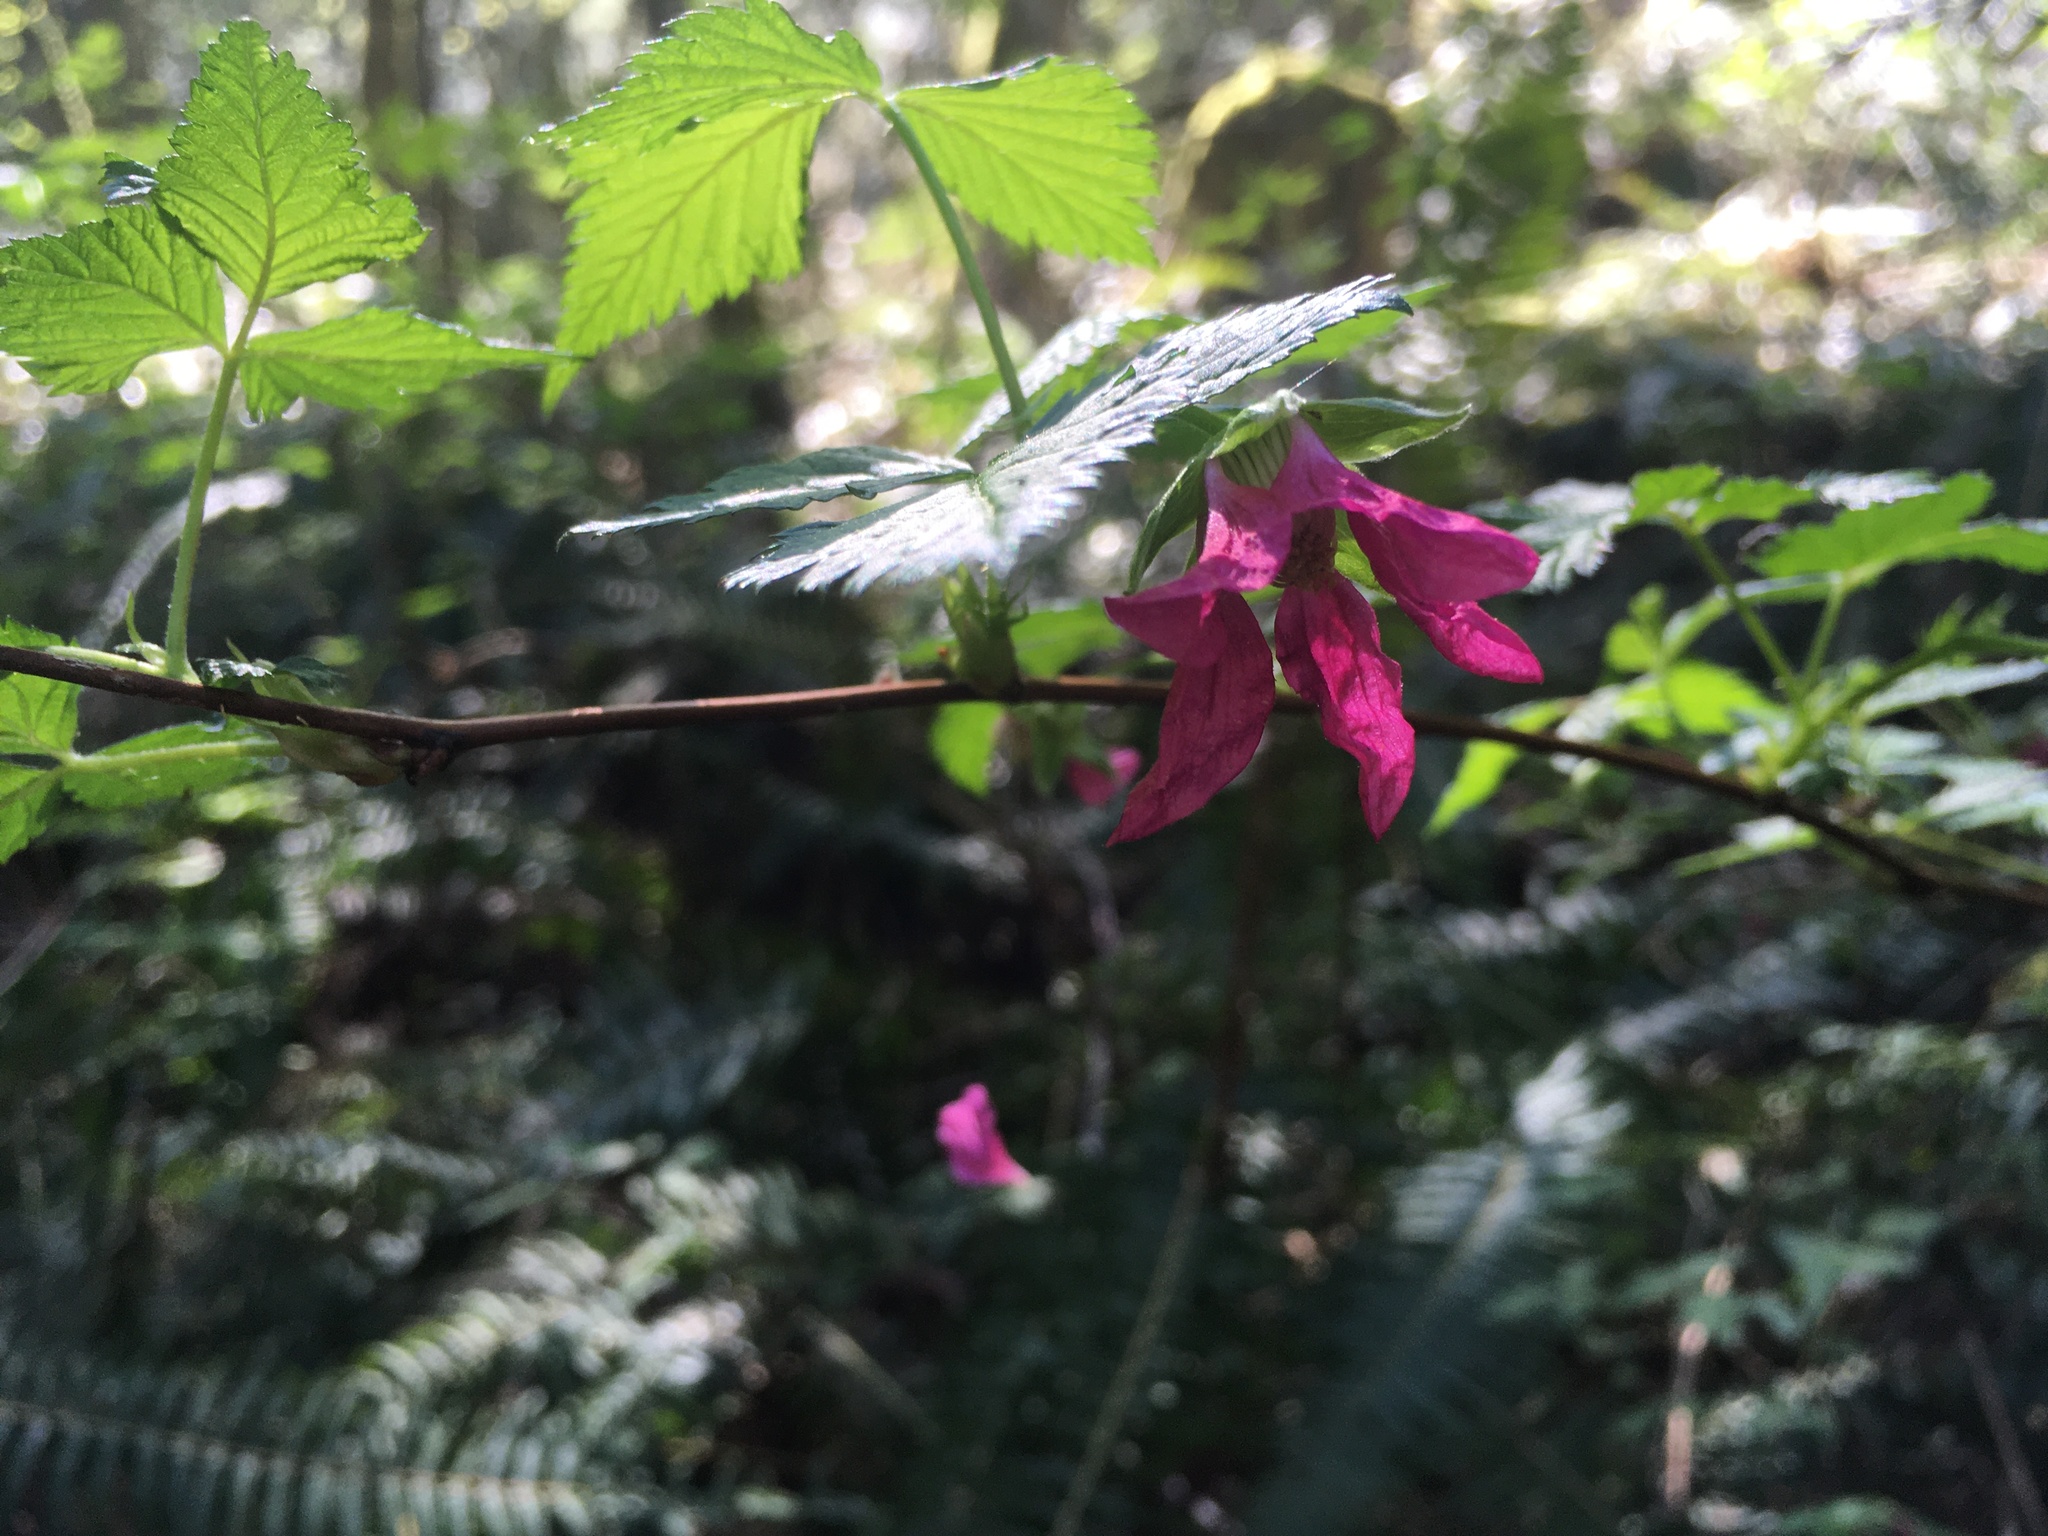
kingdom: Plantae
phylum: Tracheophyta
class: Magnoliopsida
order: Rosales
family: Rosaceae
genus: Rubus
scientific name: Rubus spectabilis
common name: Salmonberry
